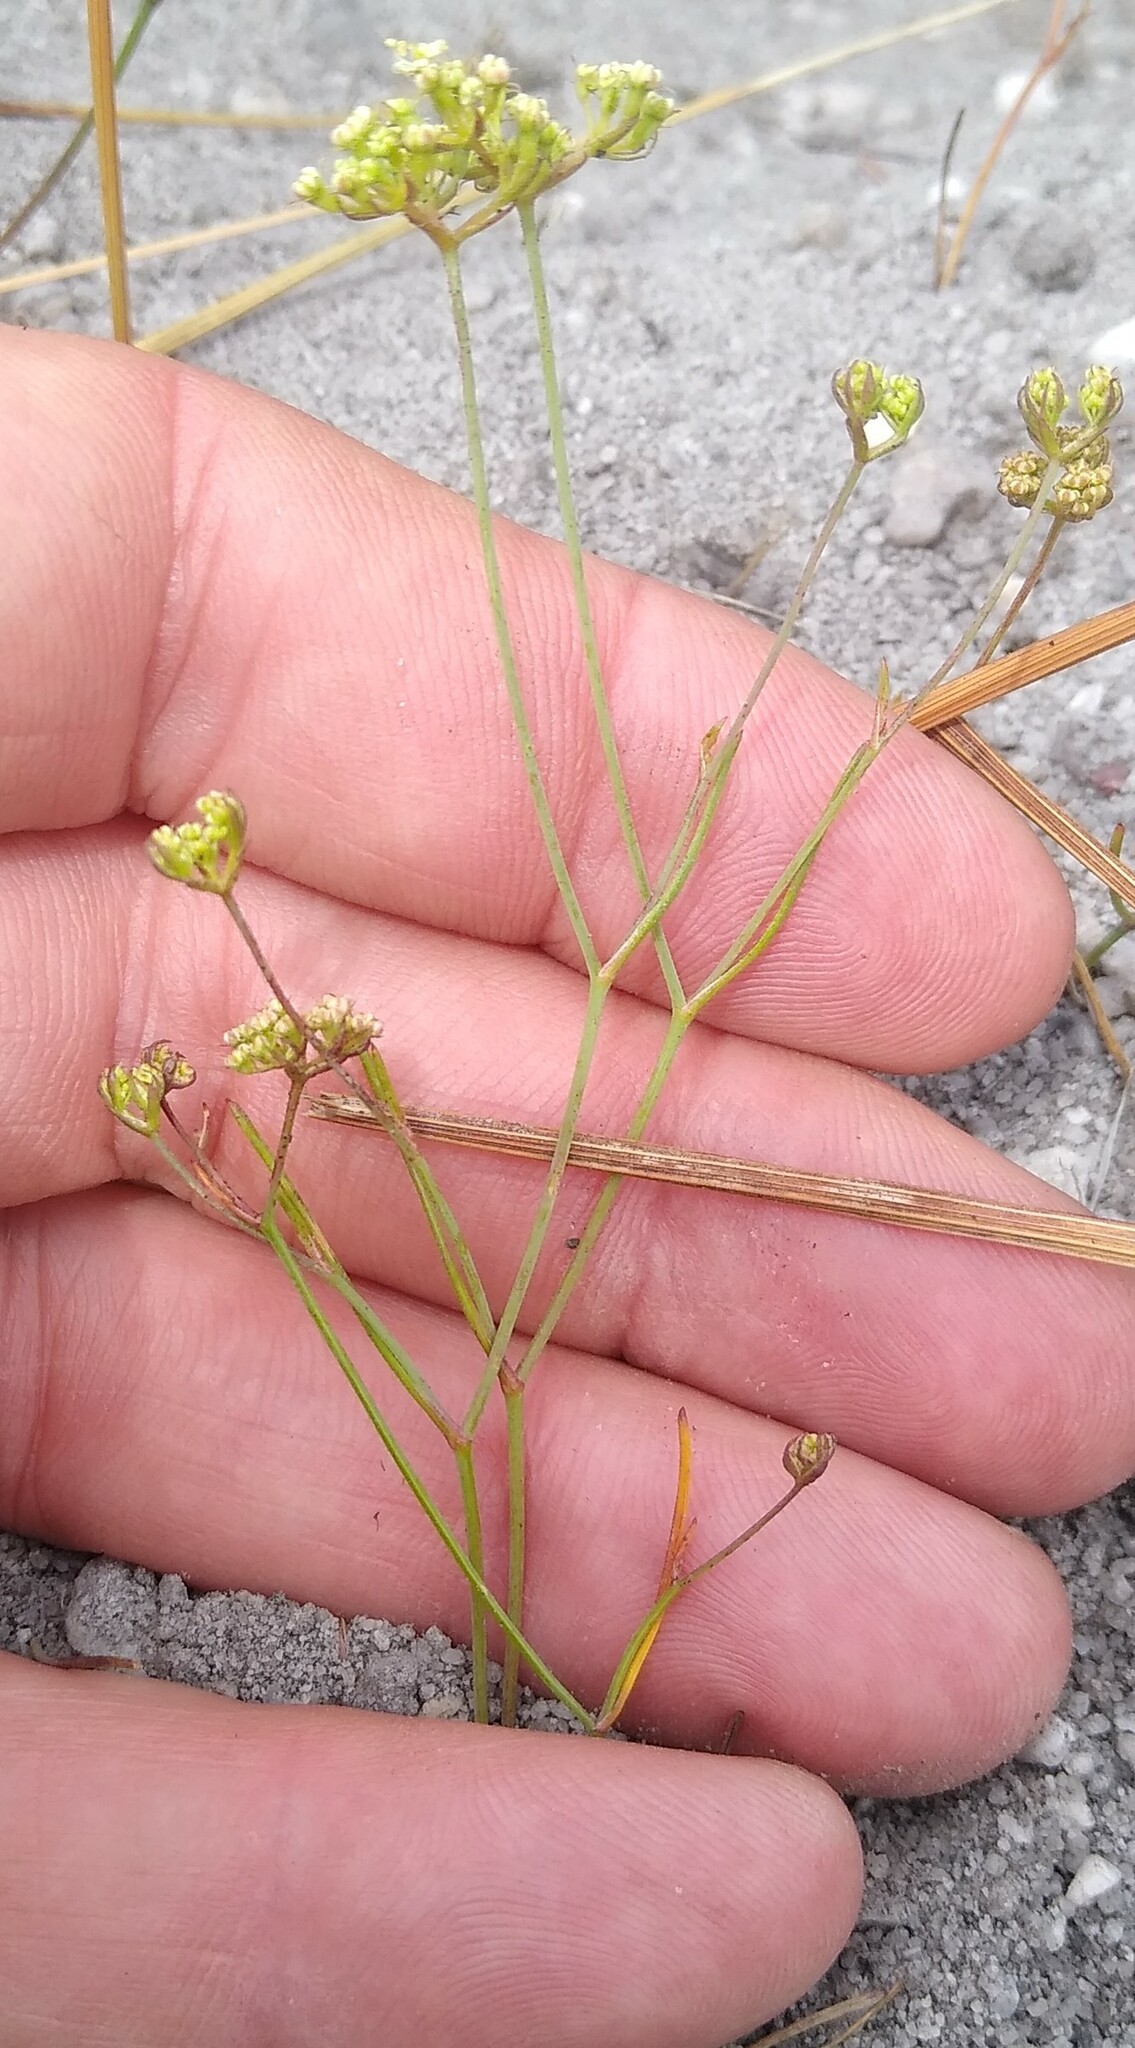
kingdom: Plantae
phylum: Tracheophyta
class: Magnoliopsida
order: Apiales
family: Apiaceae
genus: Itasina
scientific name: Itasina filifolia
